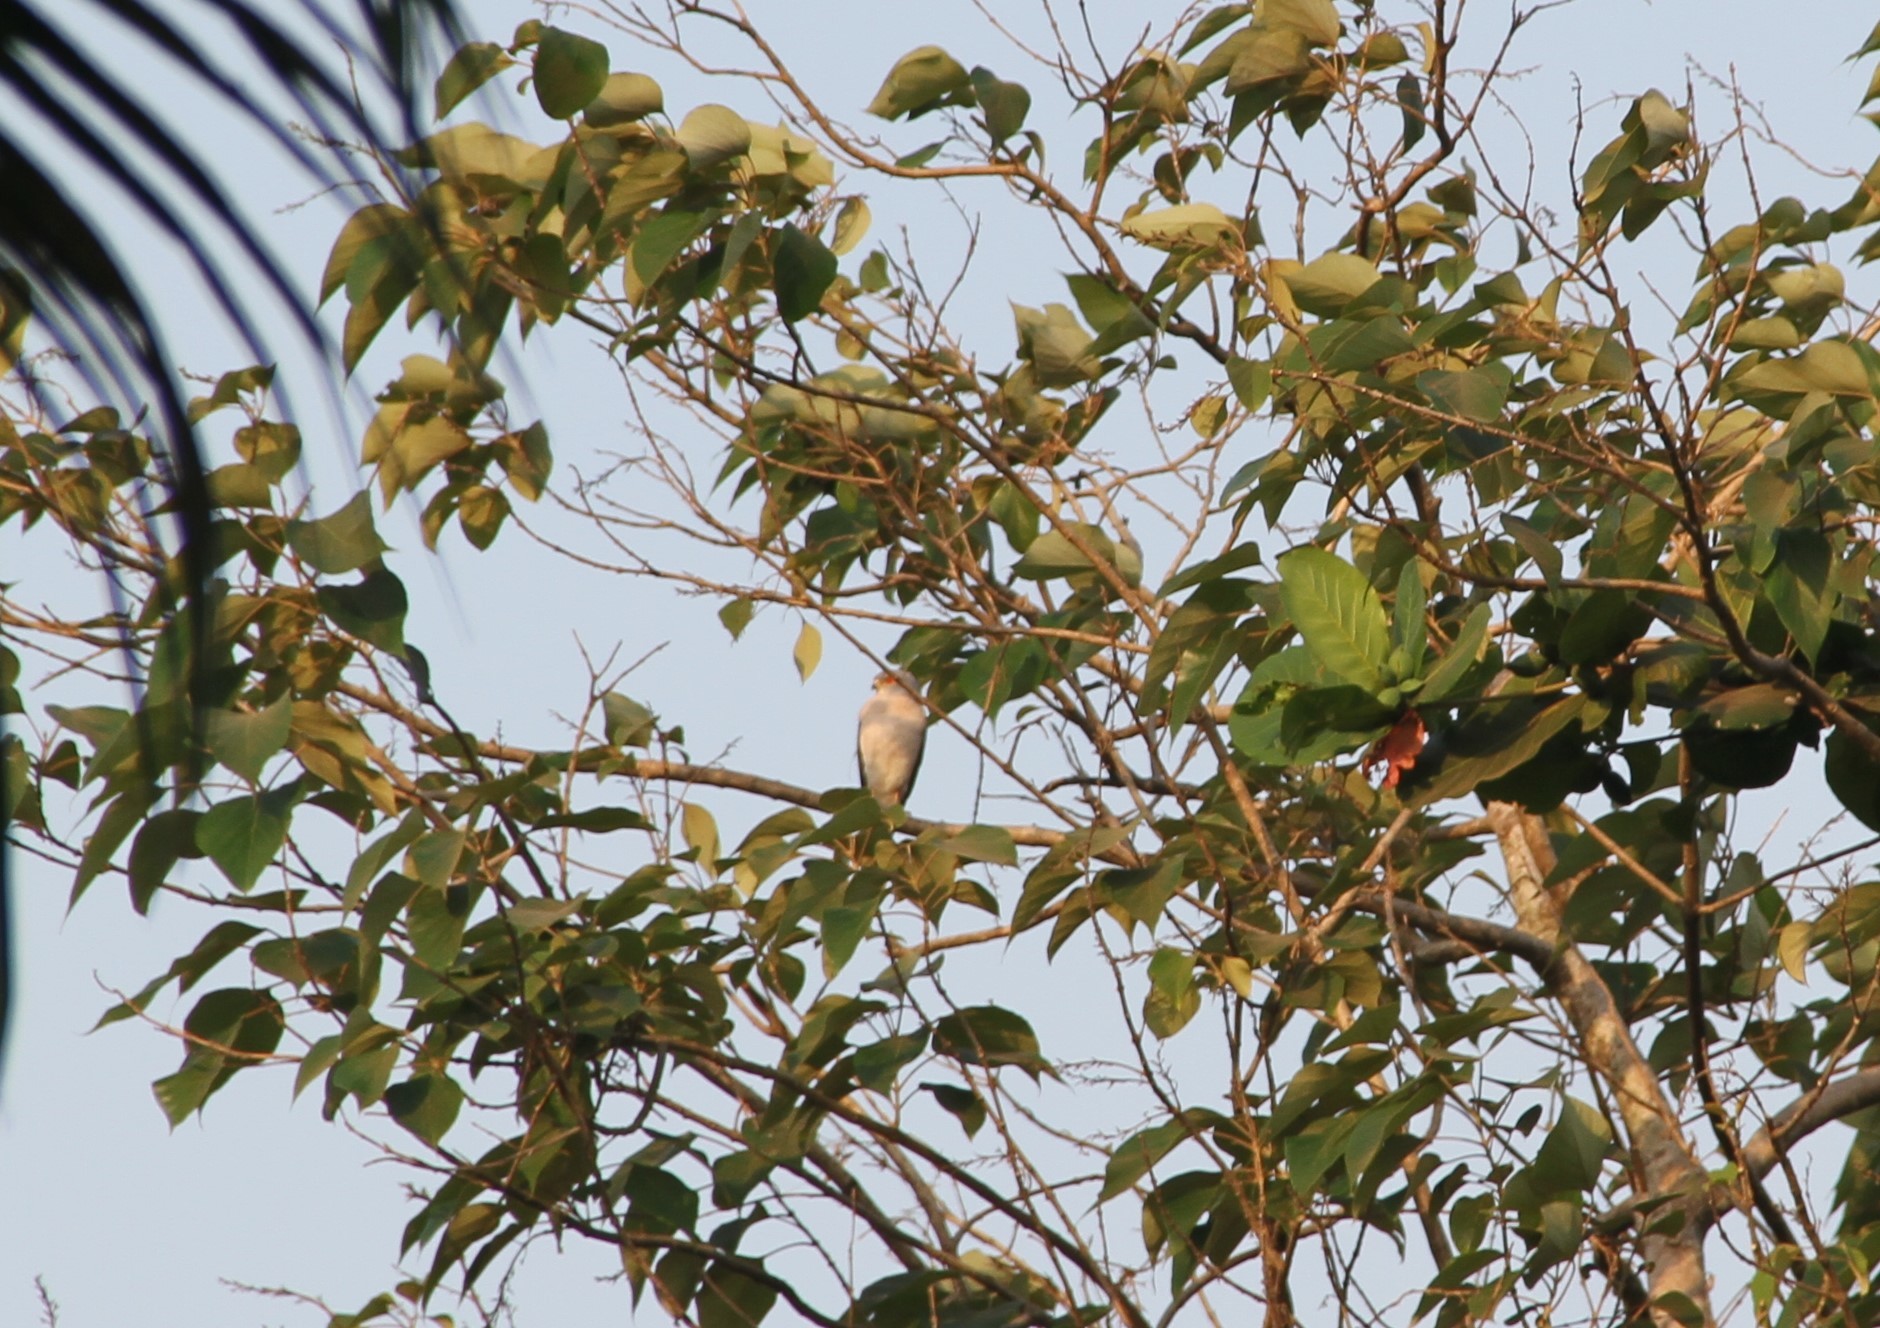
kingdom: Animalia
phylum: Chordata
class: Aves
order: Accipitriformes
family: Accipitridae
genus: Accipiter
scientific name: Accipiter badius
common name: Shikra
